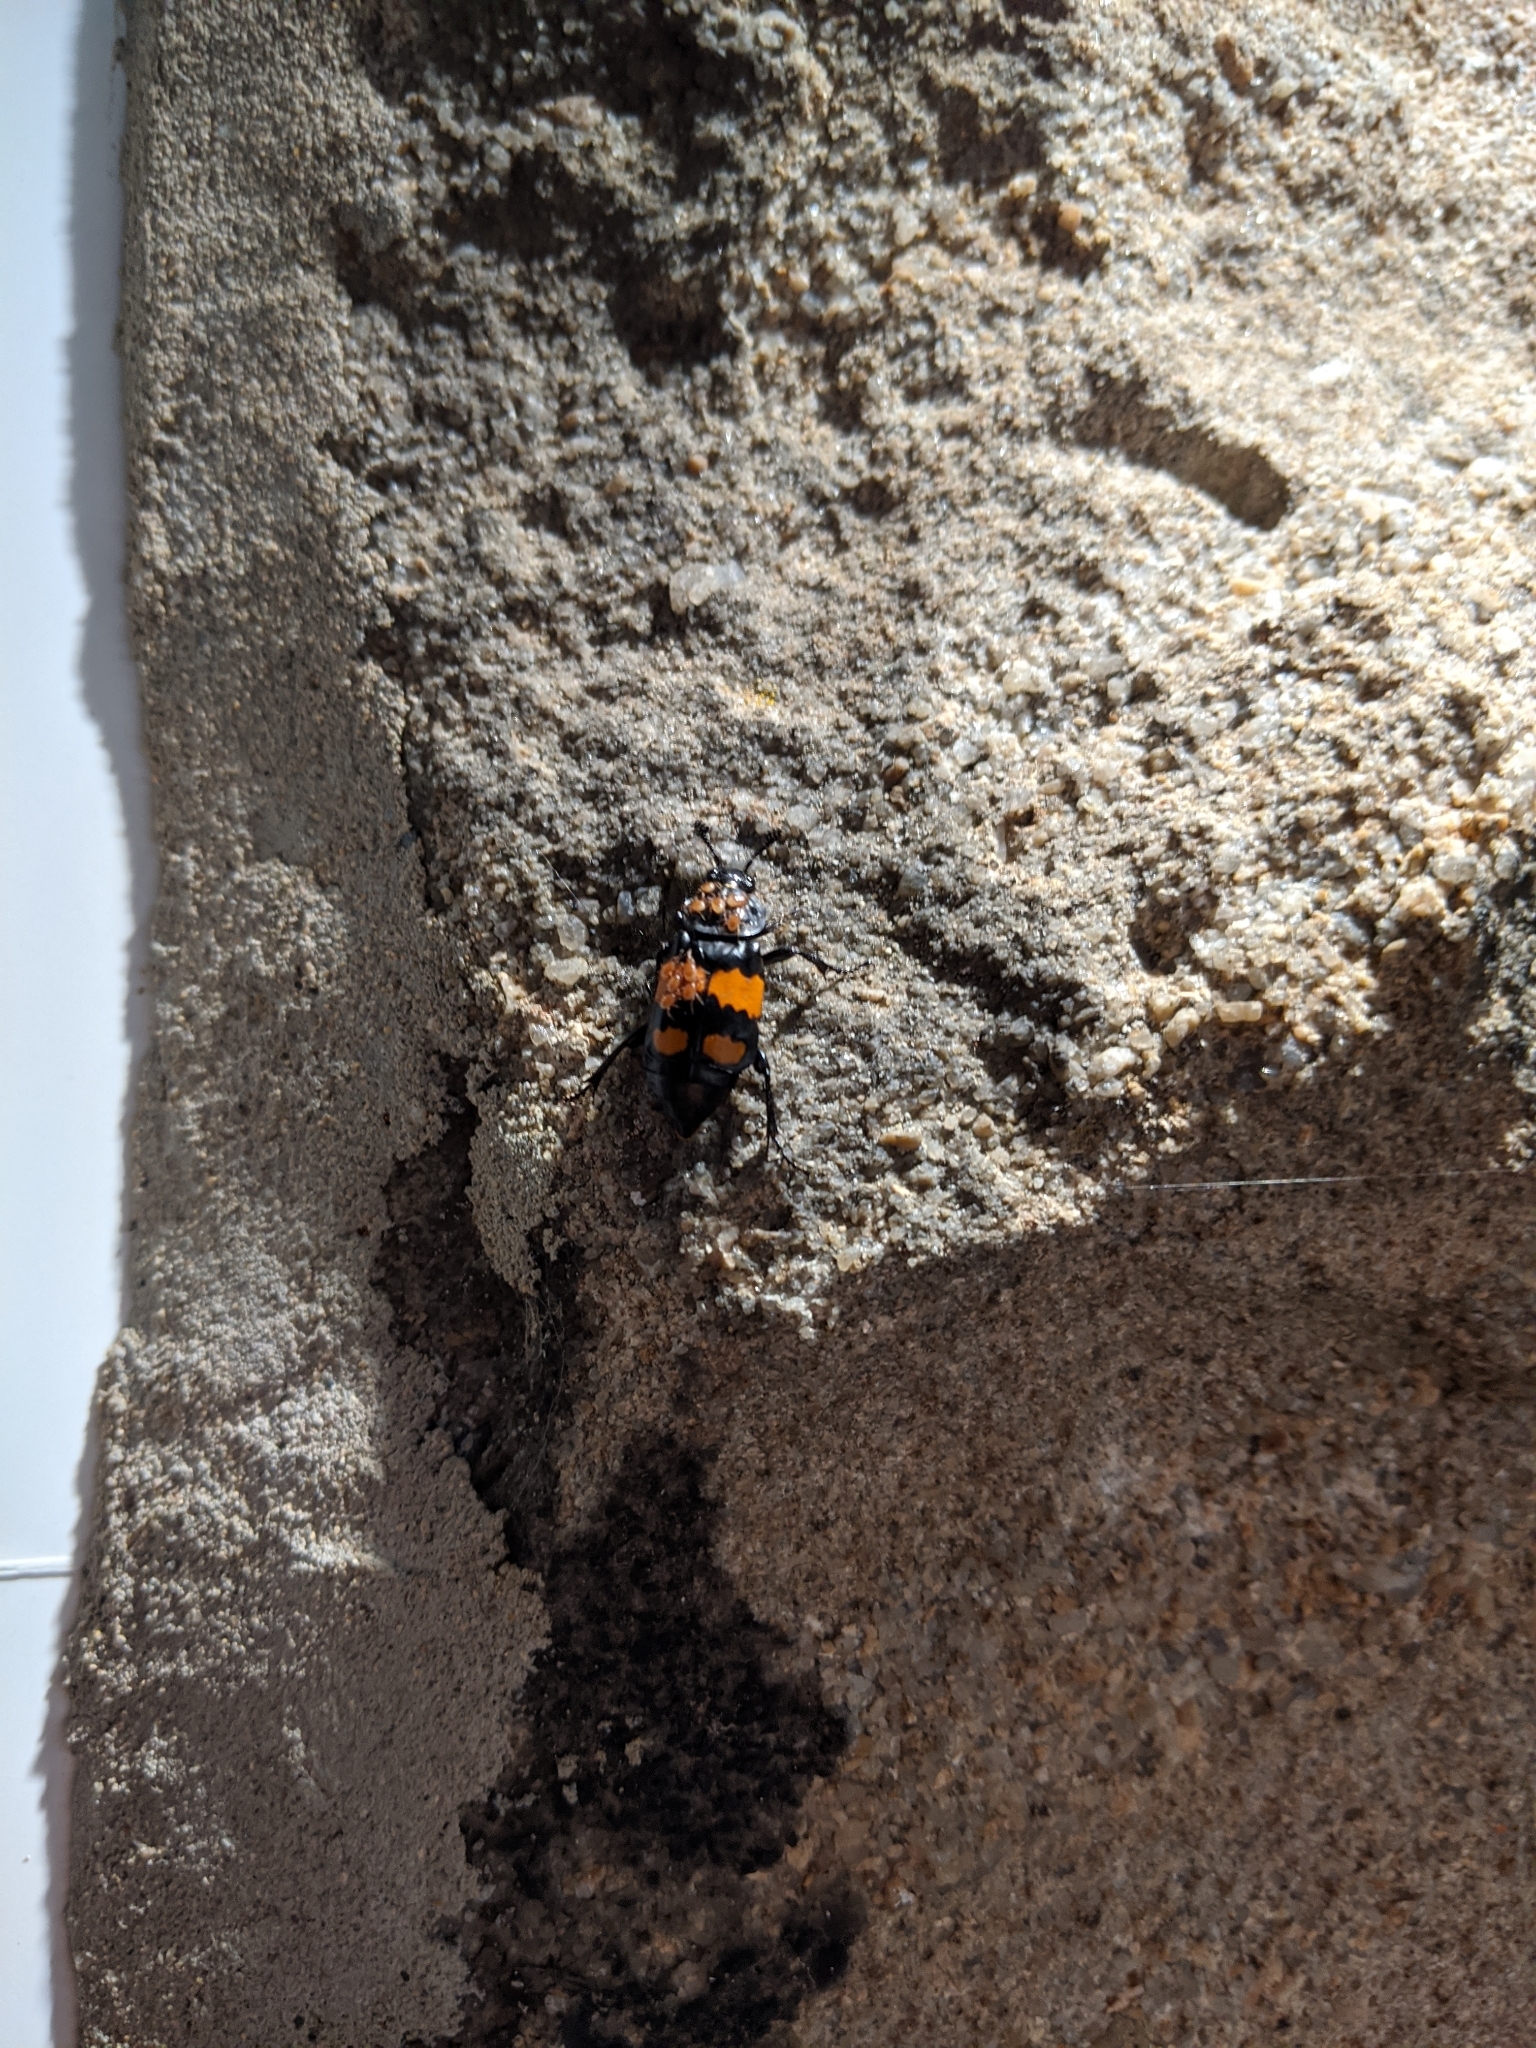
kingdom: Animalia
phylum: Arthropoda
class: Insecta
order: Coleoptera
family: Staphylinidae
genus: Nicrophorus
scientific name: Nicrophorus vespilloides
